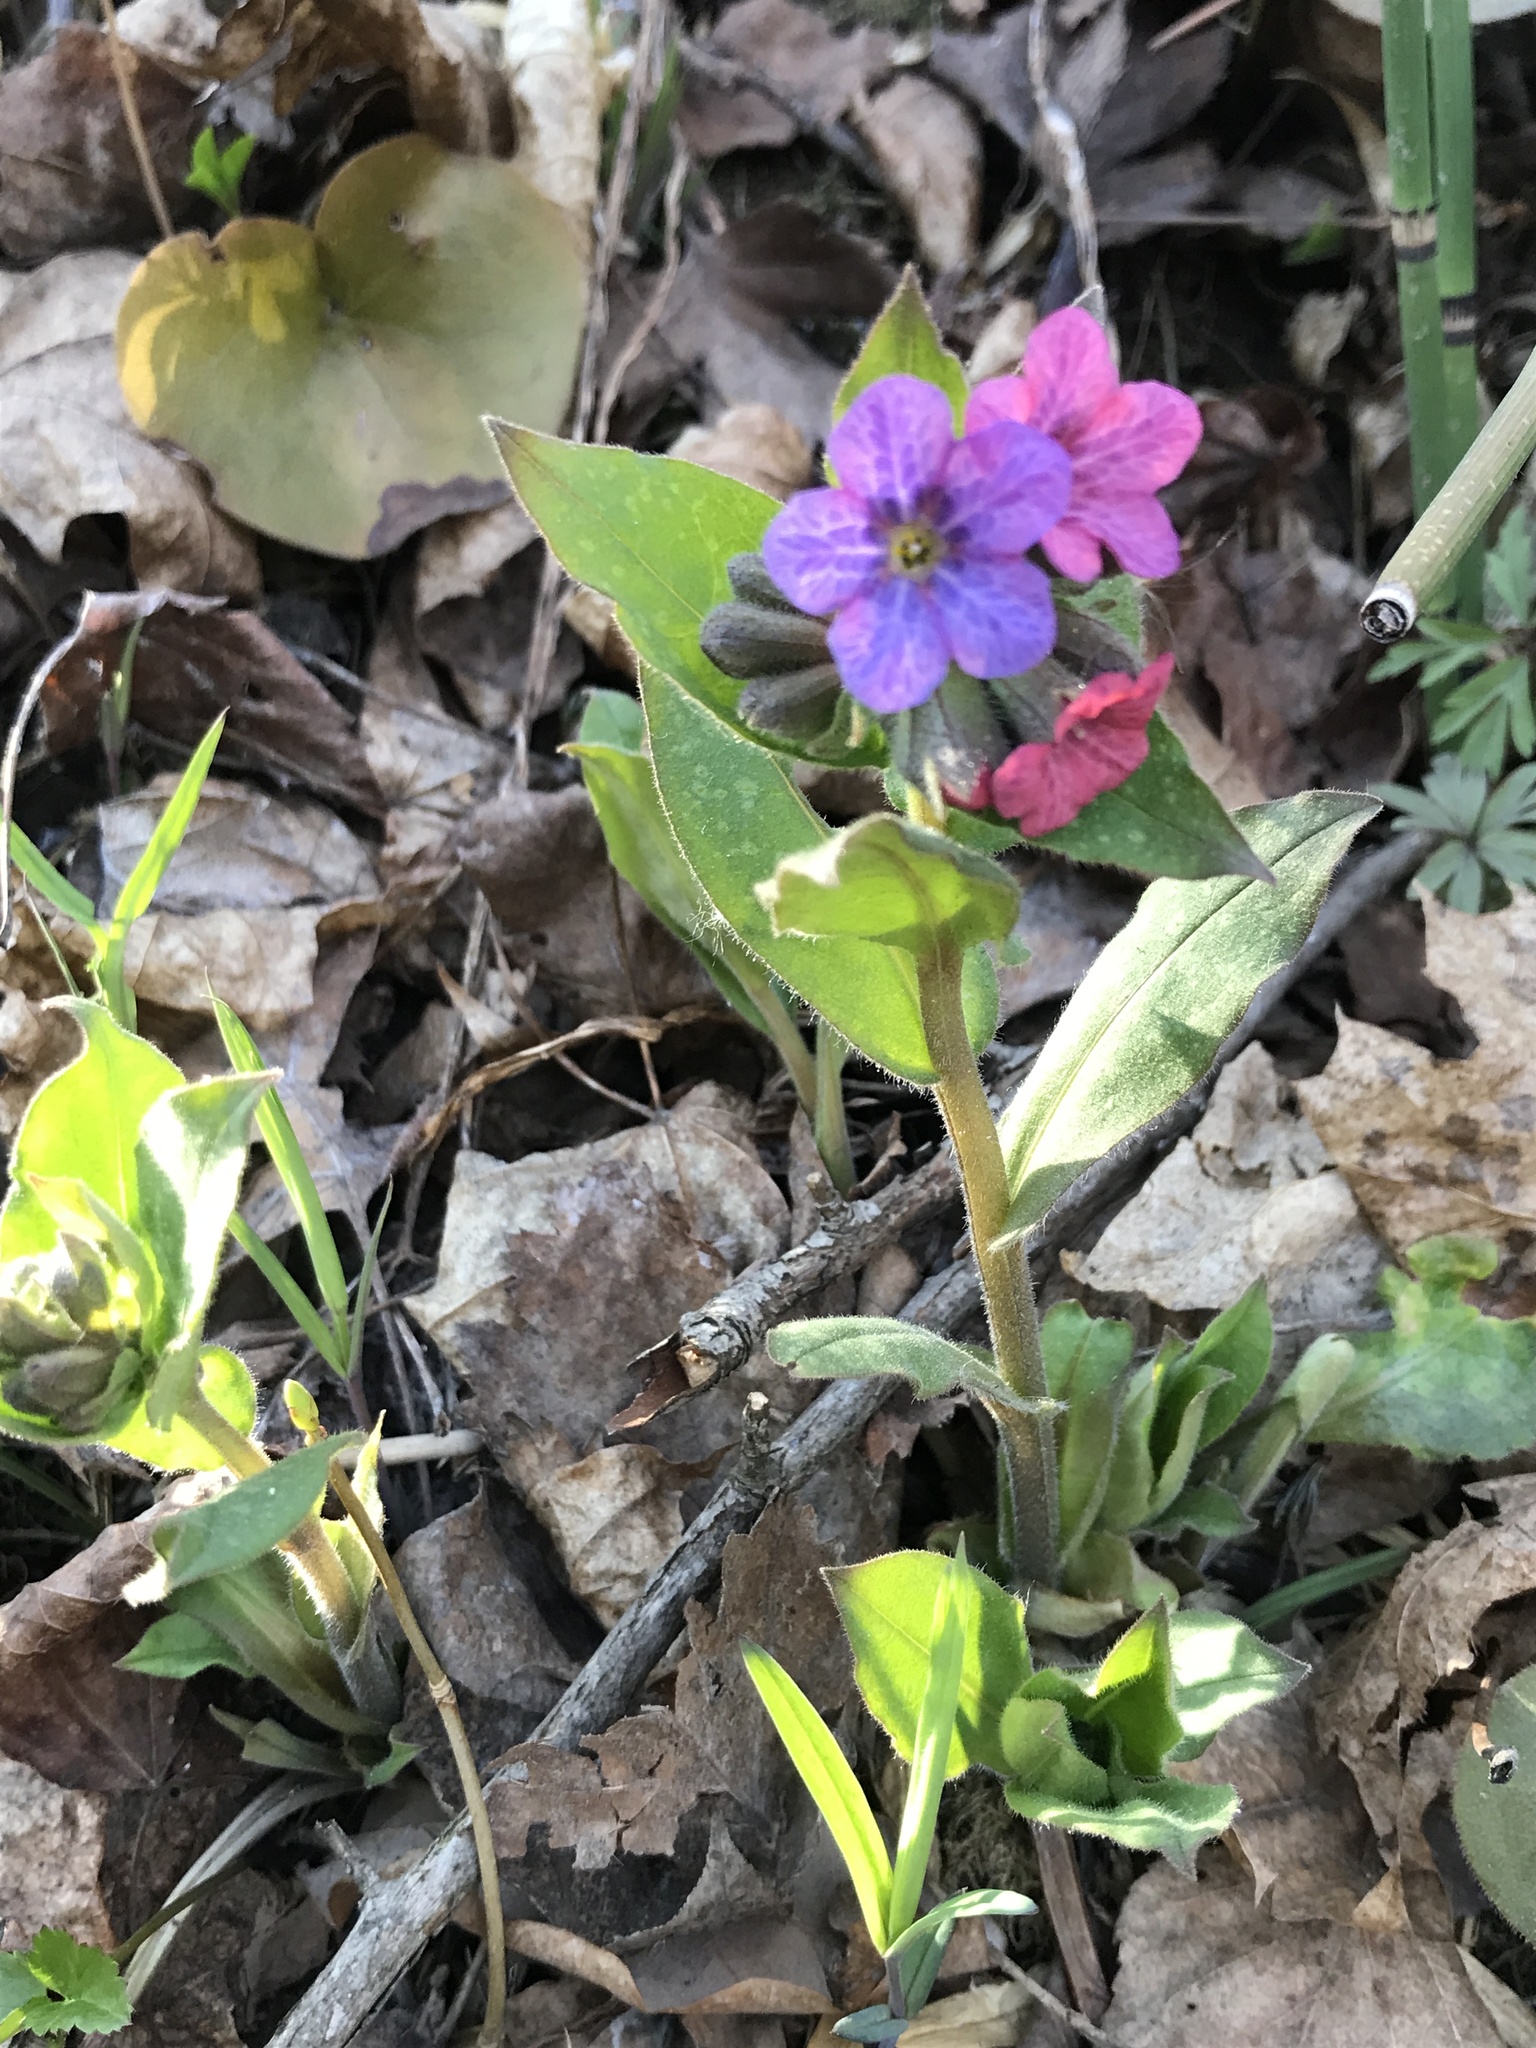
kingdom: Plantae
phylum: Tracheophyta
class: Magnoliopsida
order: Boraginales
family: Boraginaceae
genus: Pulmonaria
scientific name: Pulmonaria obscura
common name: Suffolk lungwort
